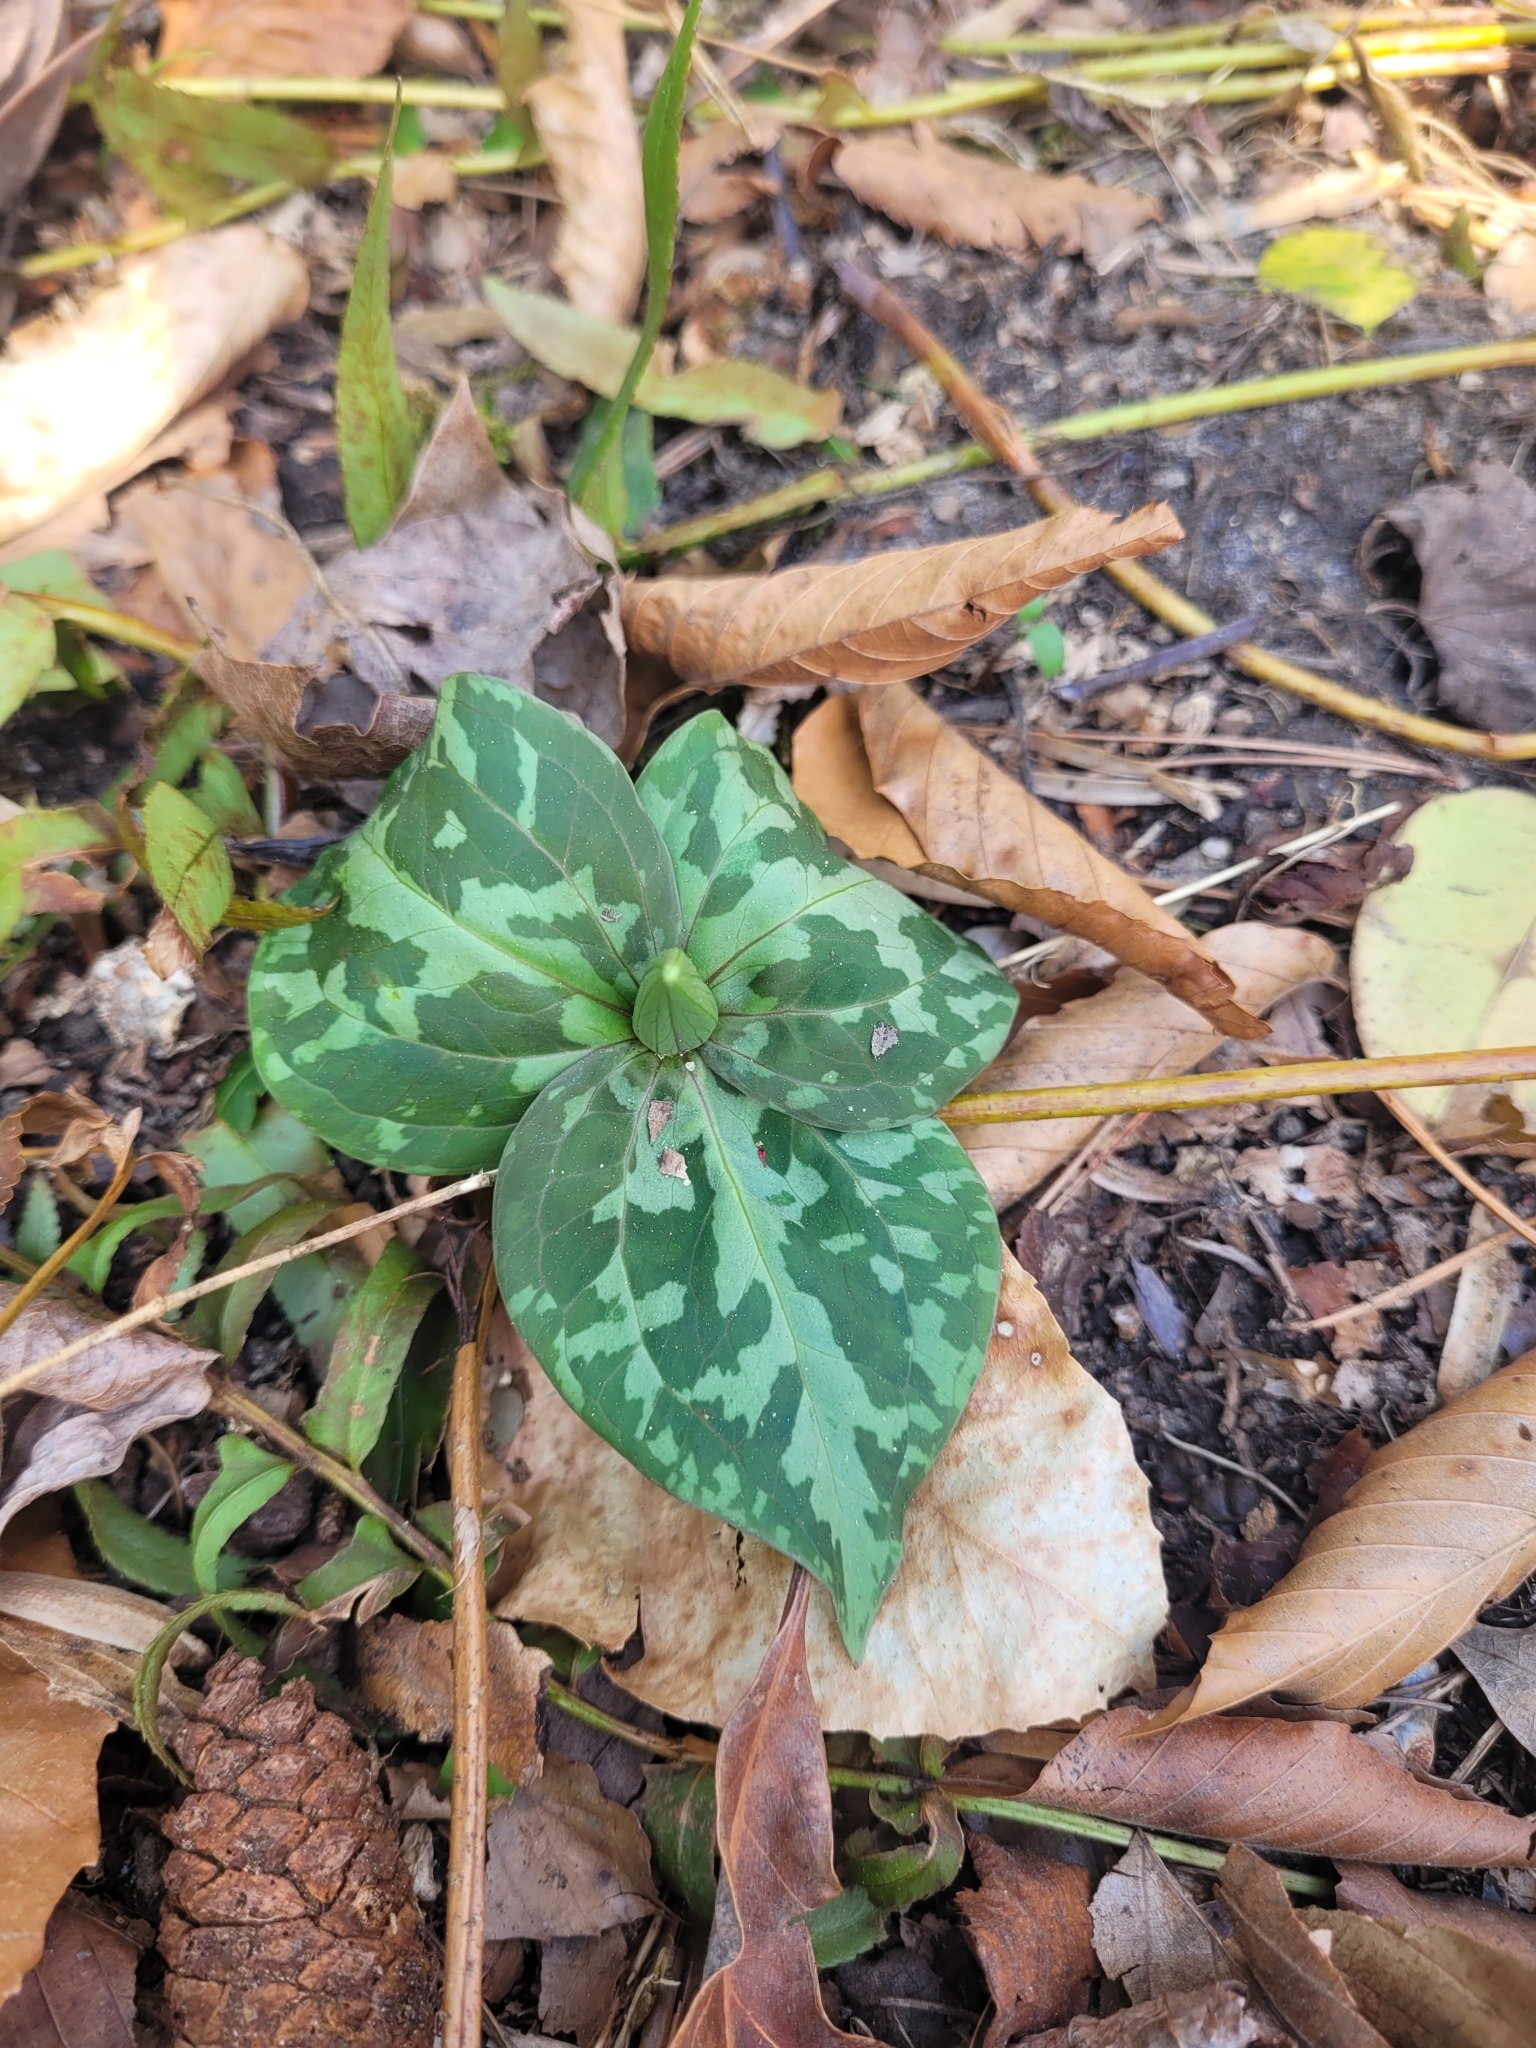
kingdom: Plantae
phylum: Tracheophyta
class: Liliopsida
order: Liliales
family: Melanthiaceae
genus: Trillium
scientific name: Trillium cuneatum
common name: Cuneate trillium
